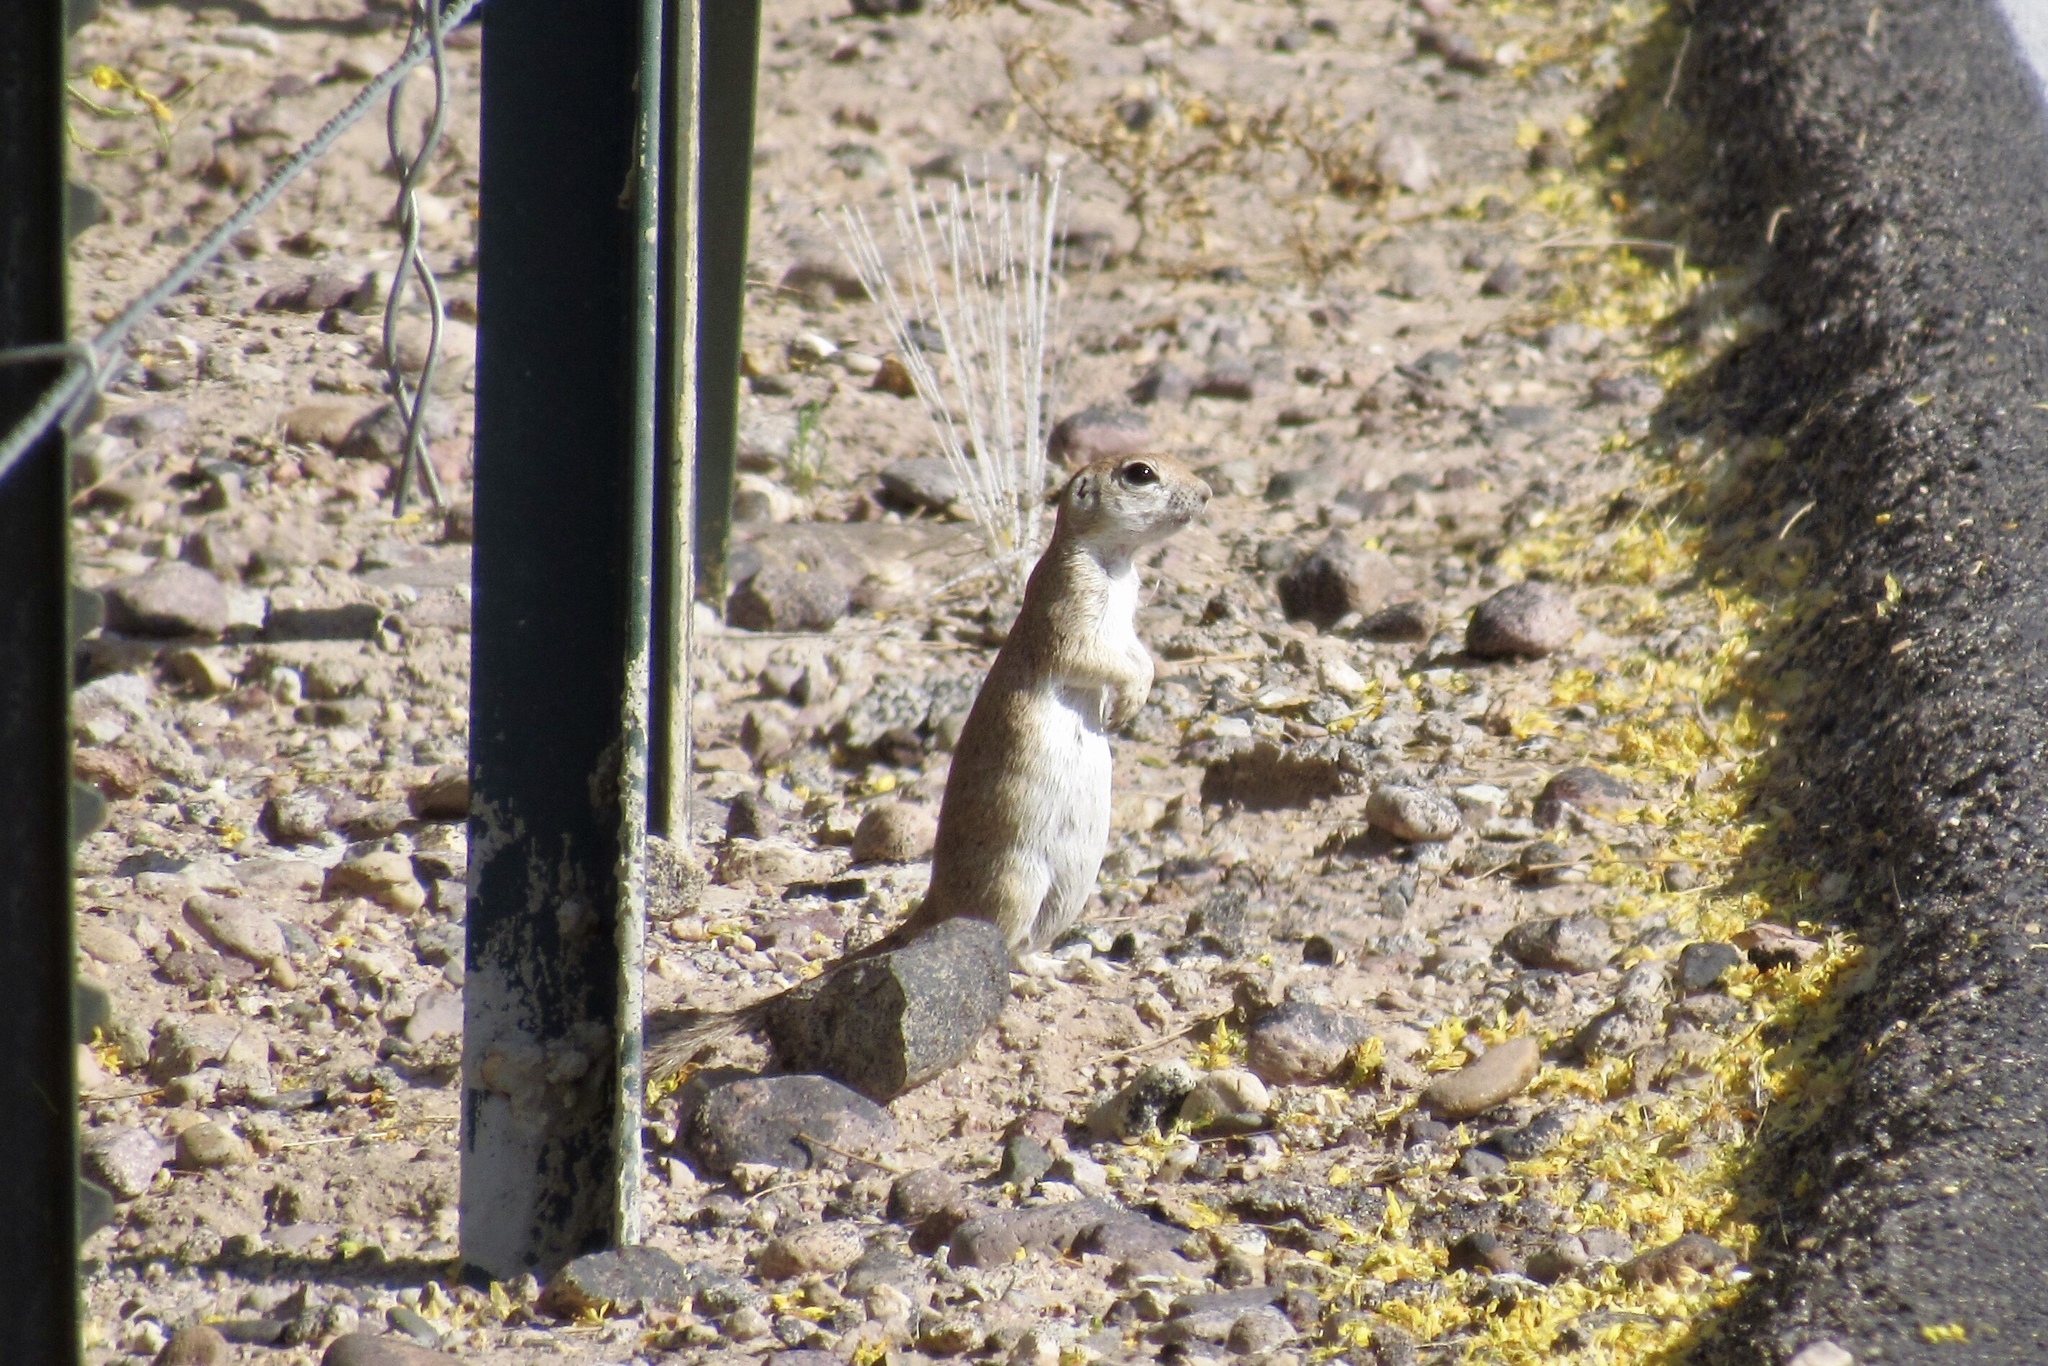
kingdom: Animalia
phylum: Chordata
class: Mammalia
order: Rodentia
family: Sciuridae
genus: Xerospermophilus
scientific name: Xerospermophilus tereticaudus
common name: Round-tailed ground squirrel
